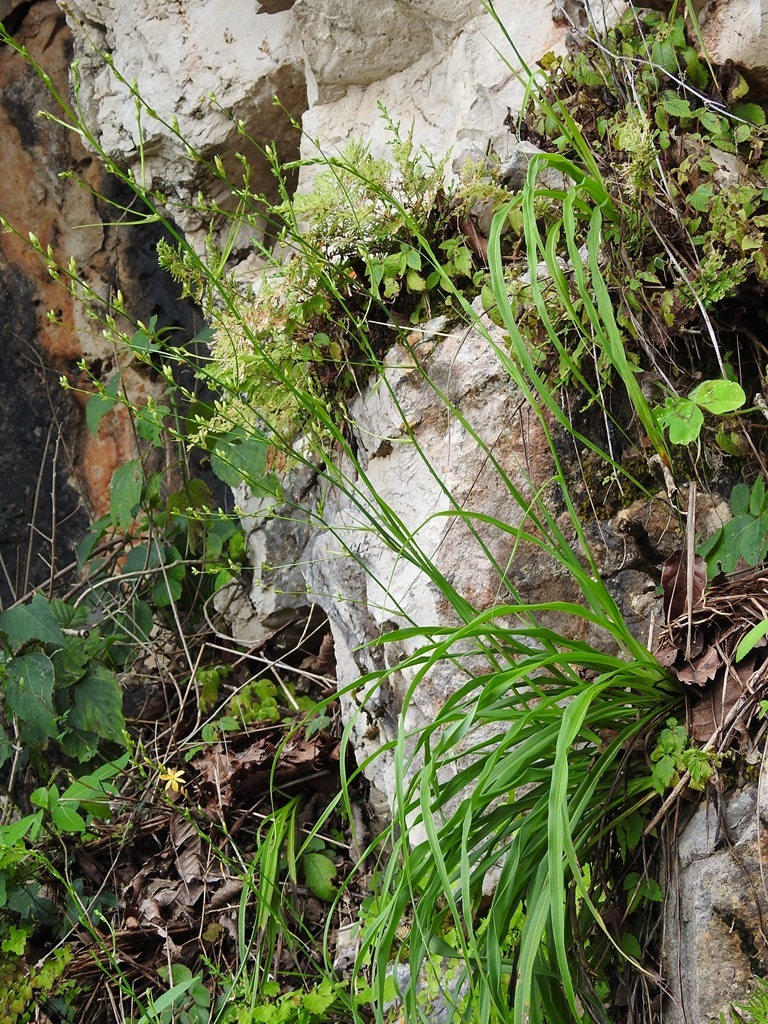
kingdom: Plantae
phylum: Tracheophyta
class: Liliopsida
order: Asparagales
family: Asparagaceae
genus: Echeandia
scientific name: Echeandia breedlovei
